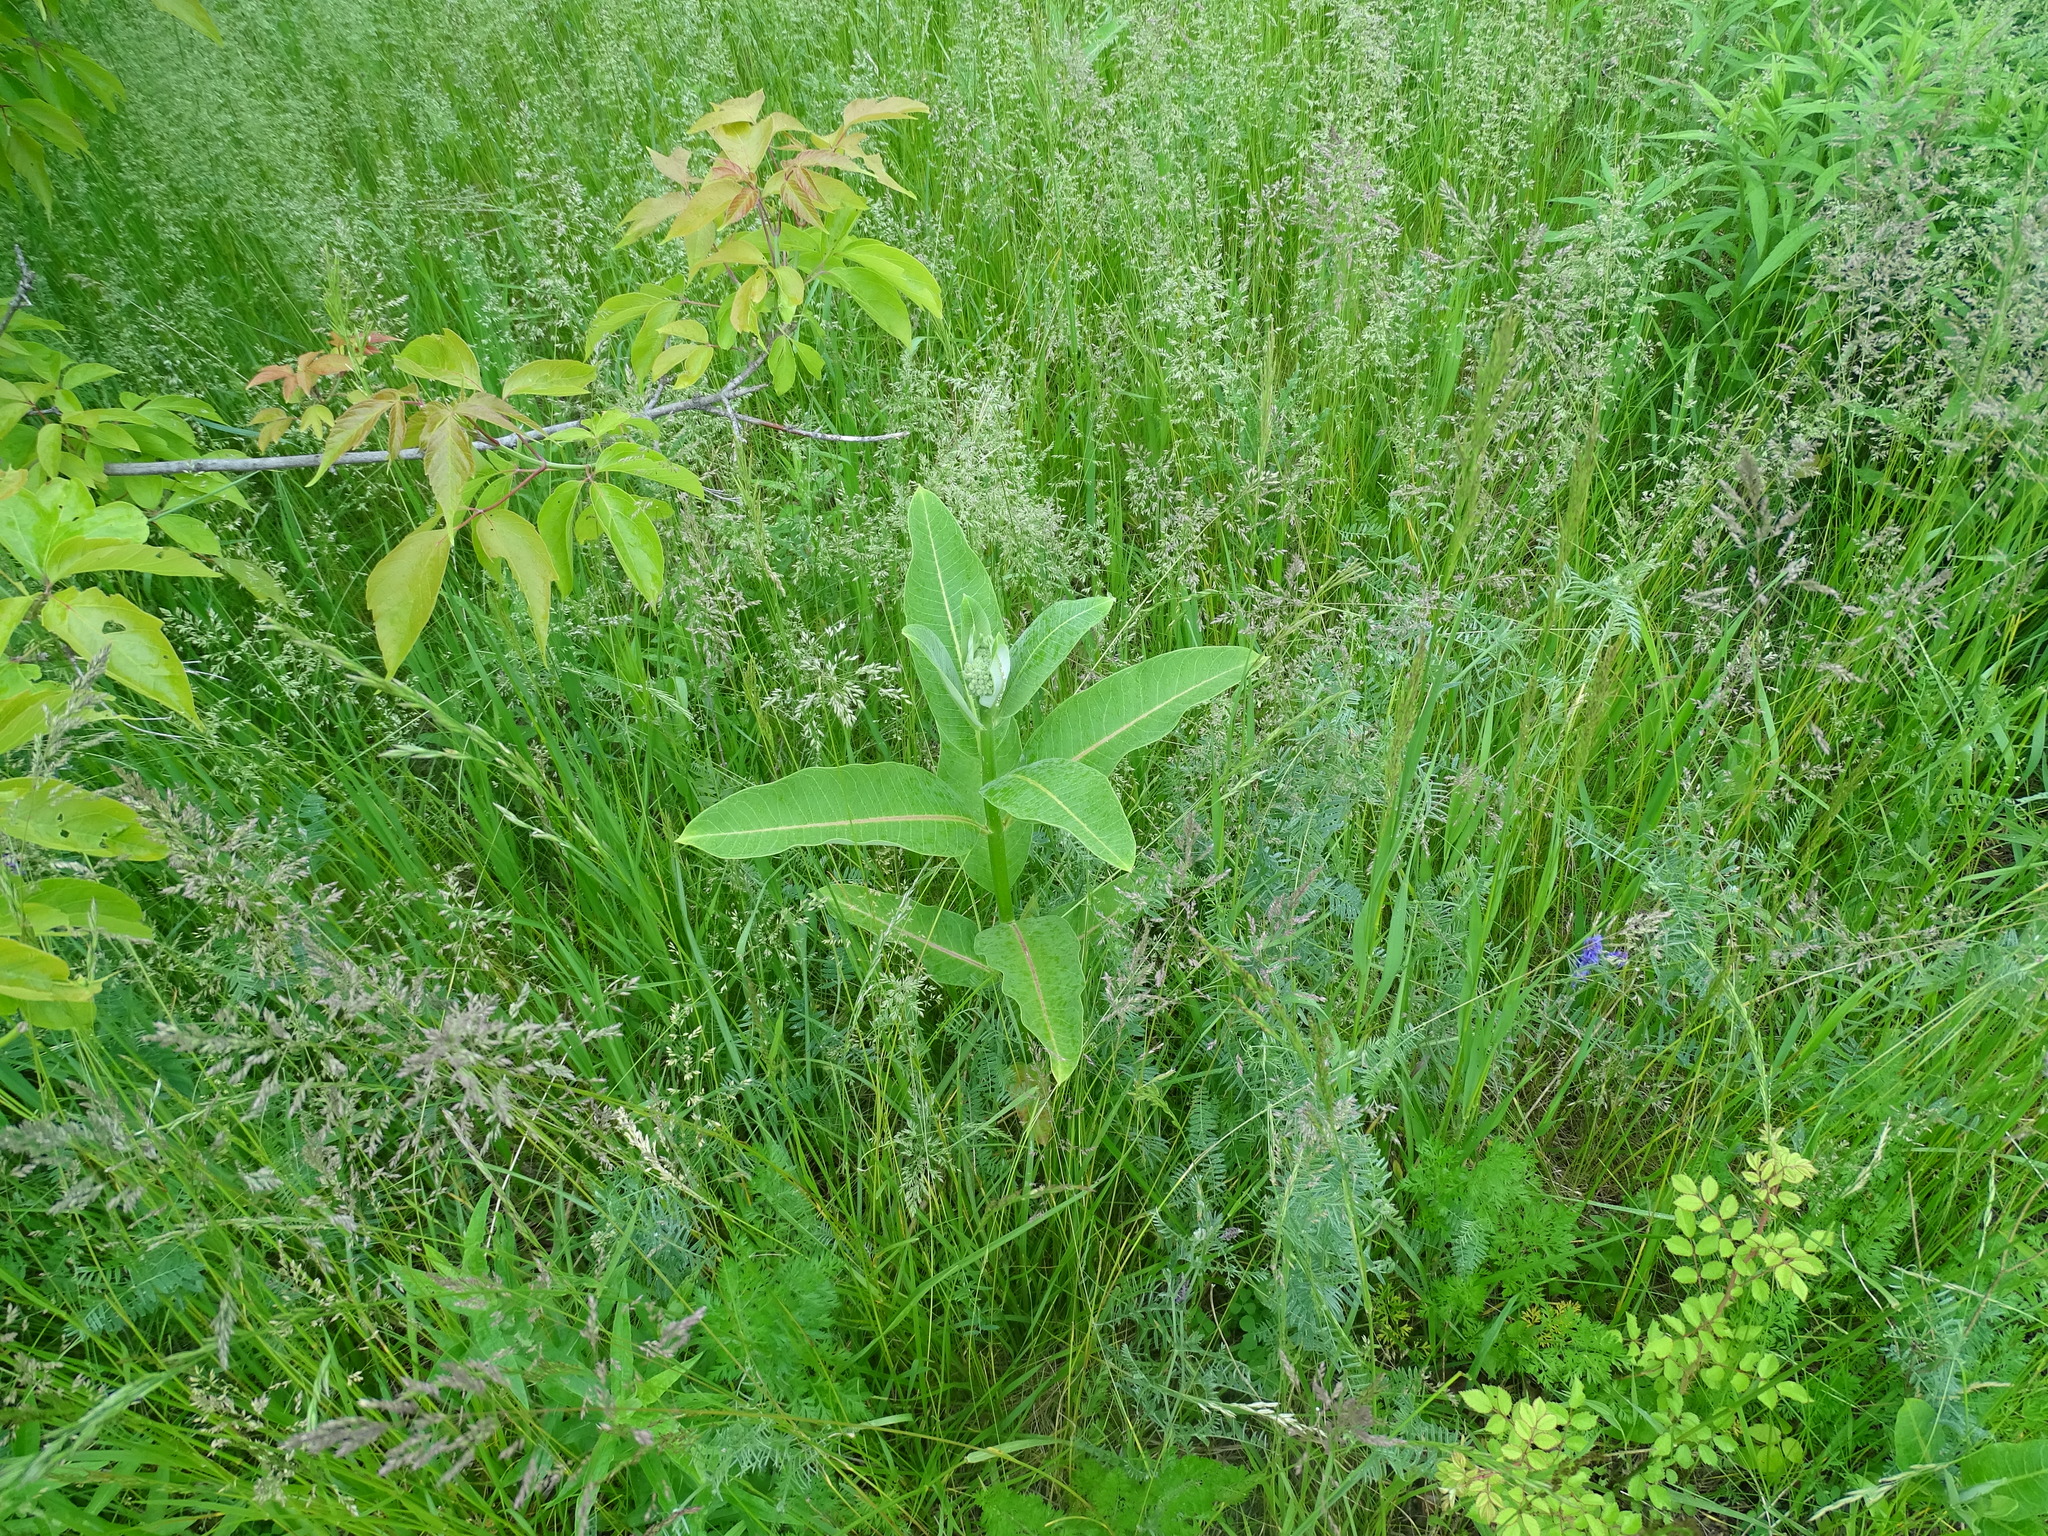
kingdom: Plantae
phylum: Tracheophyta
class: Magnoliopsida
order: Gentianales
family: Apocynaceae
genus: Asclepias
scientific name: Asclepias syriaca
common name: Common milkweed
